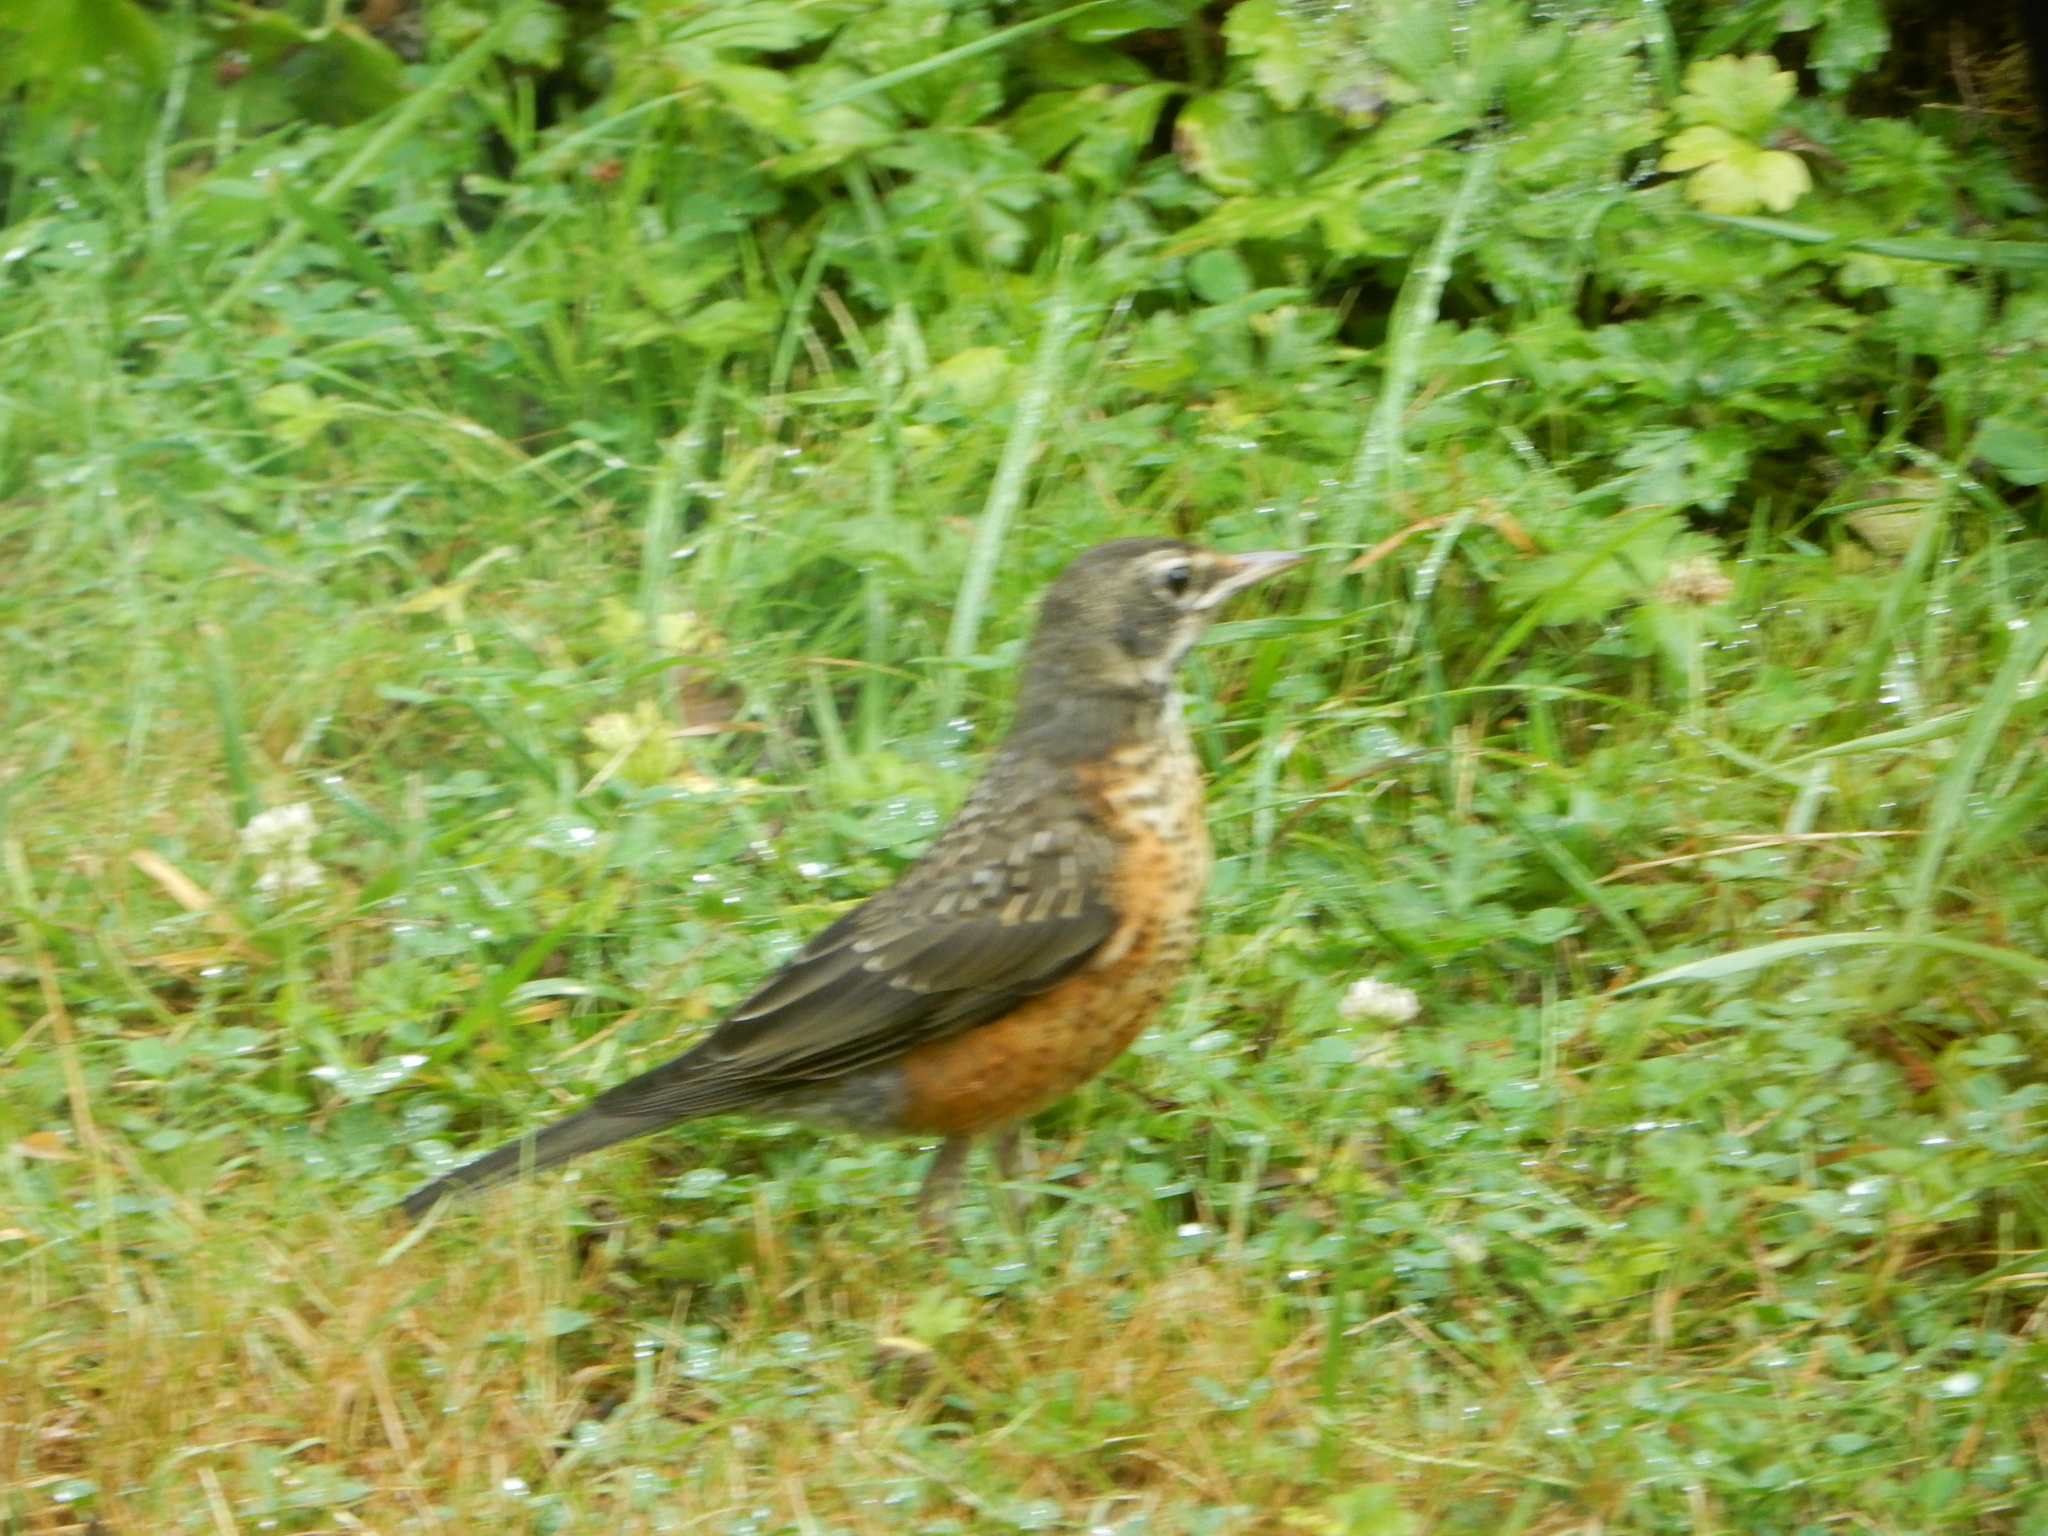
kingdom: Animalia
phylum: Chordata
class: Aves
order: Passeriformes
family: Turdidae
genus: Turdus
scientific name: Turdus migratorius
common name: American robin
